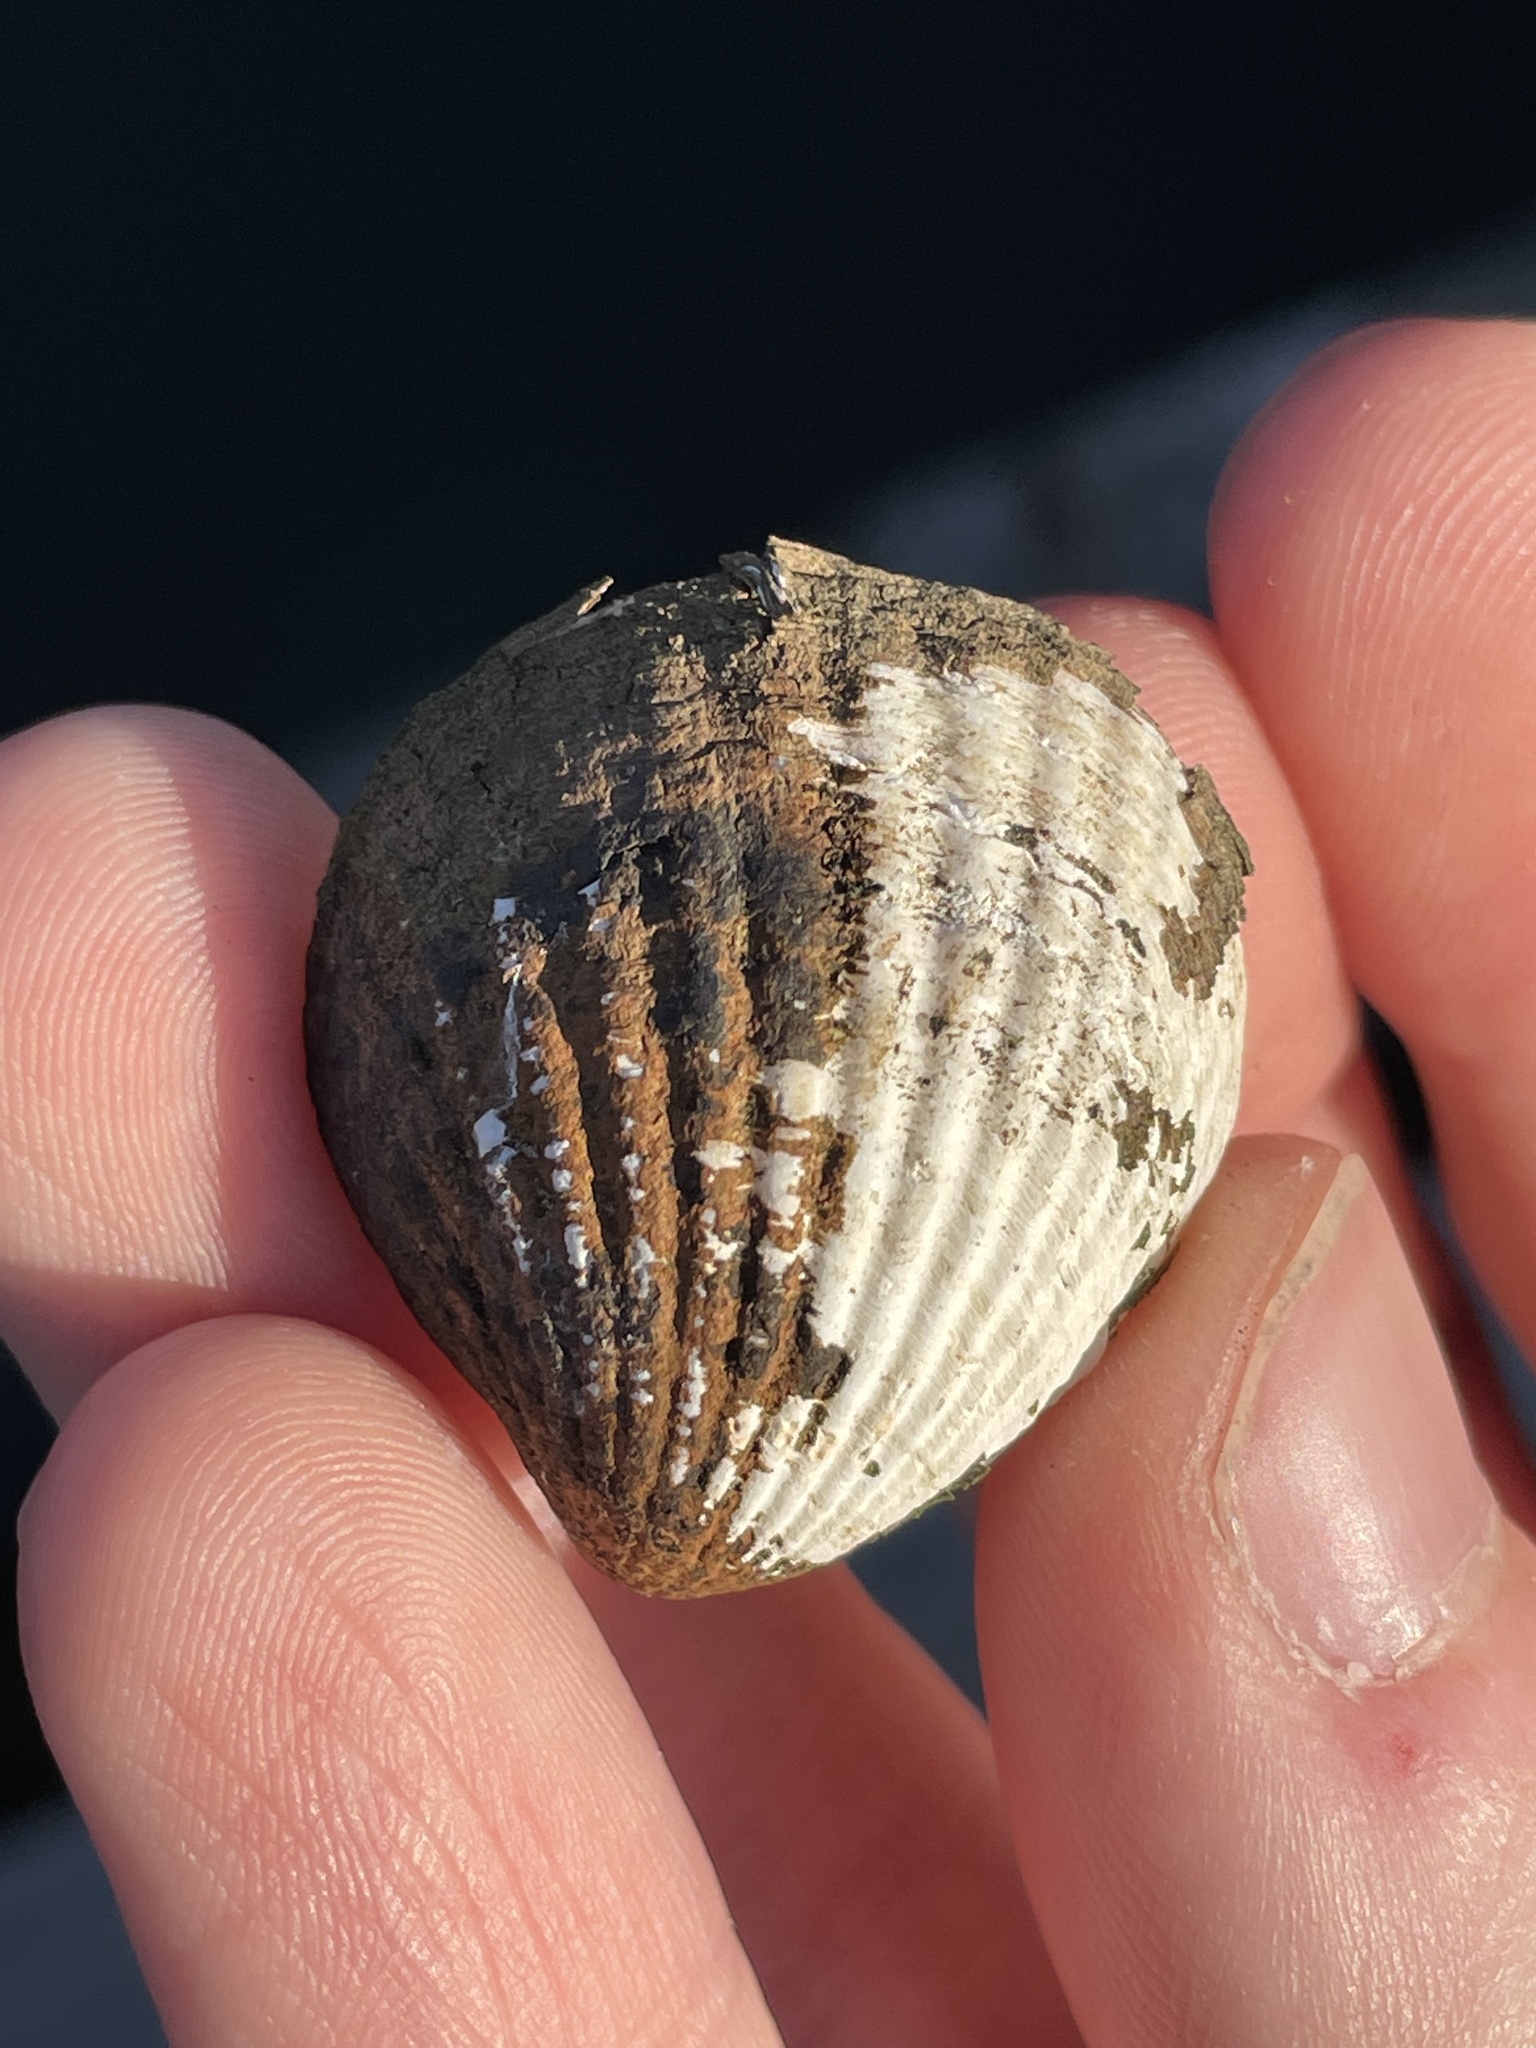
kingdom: Animalia
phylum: Mollusca
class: Bivalvia
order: Carditida
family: Carditidae
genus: Cyclocardia
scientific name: Cyclocardia borealis
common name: Northern cyclocardia
